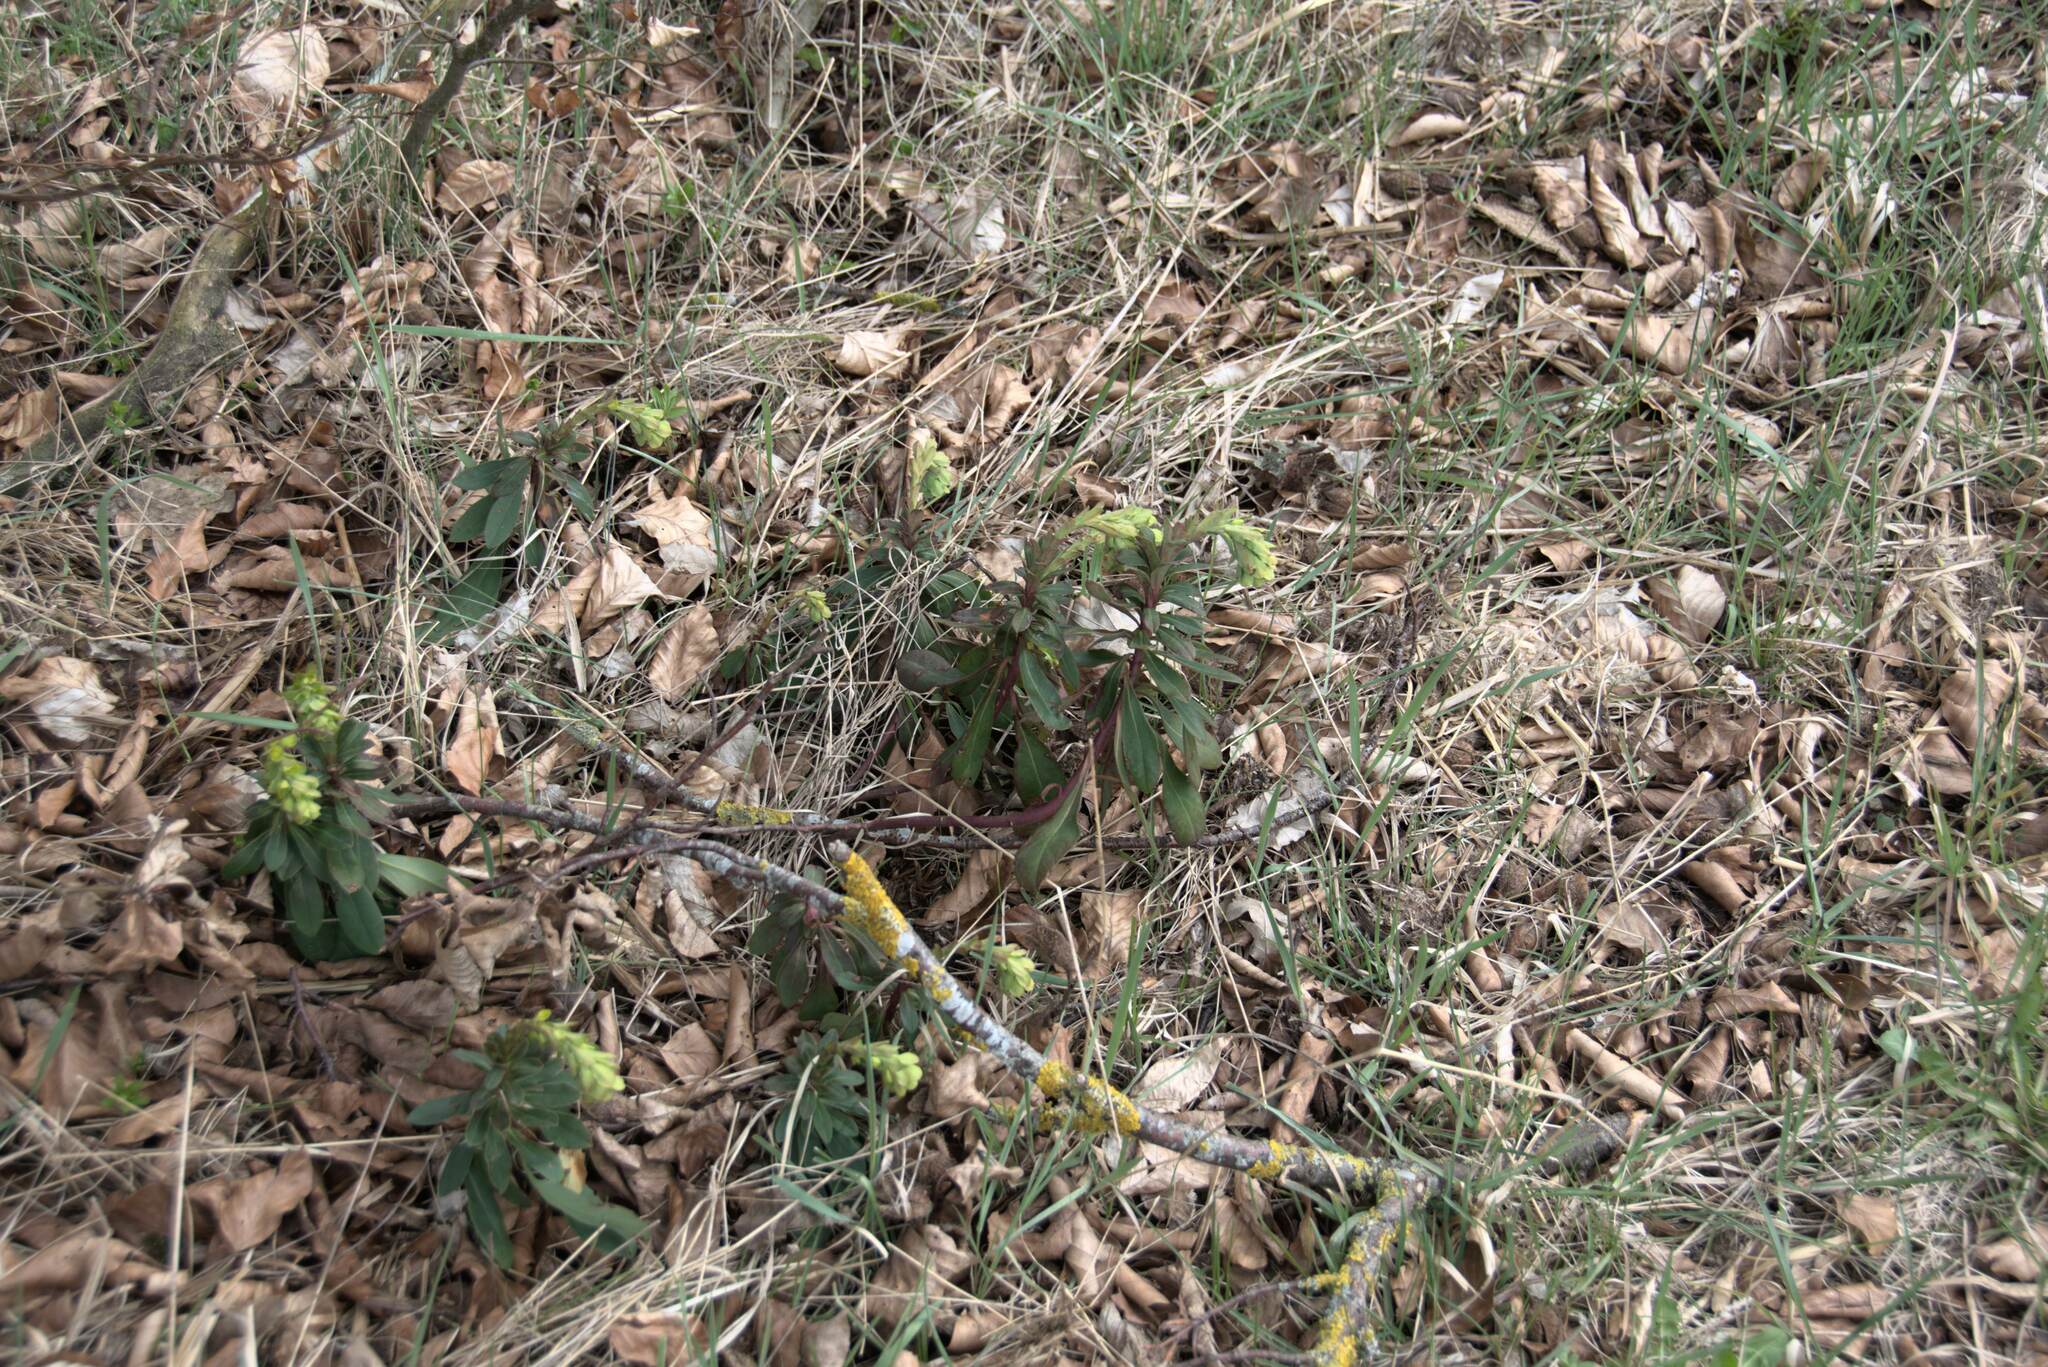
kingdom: Plantae
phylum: Tracheophyta
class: Magnoliopsida
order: Malpighiales
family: Euphorbiaceae
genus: Euphorbia
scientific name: Euphorbia amygdaloides
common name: Wood spurge
